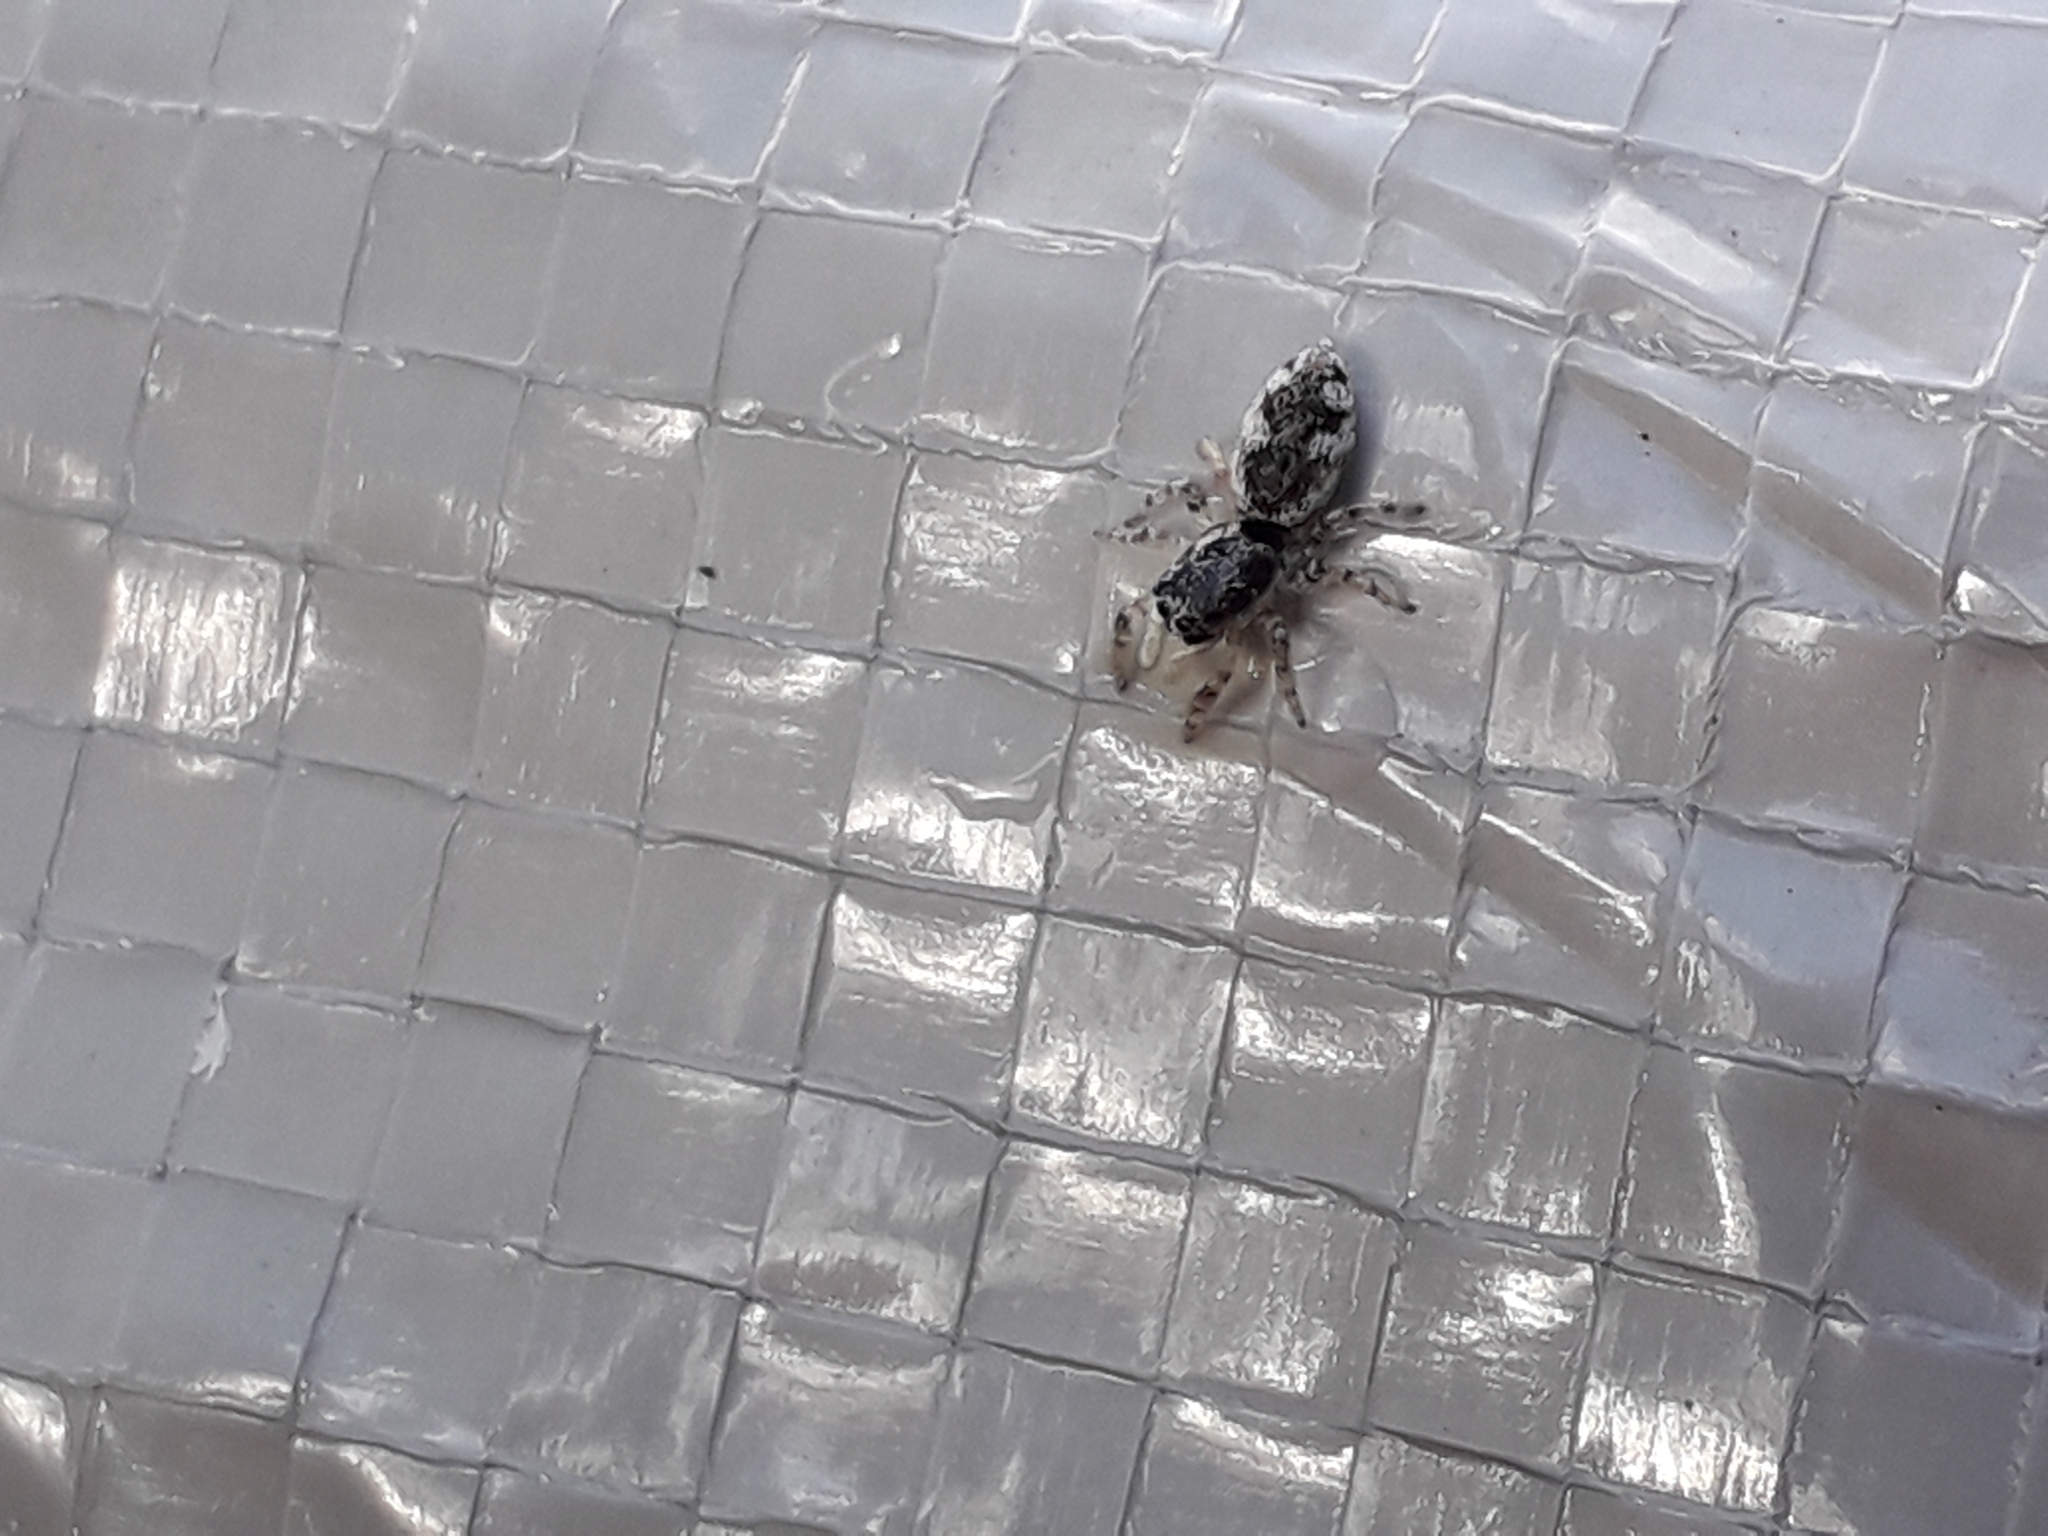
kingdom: Animalia
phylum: Arthropoda
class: Arachnida
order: Araneae
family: Salticidae
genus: Salticus
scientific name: Salticus zebraneus
